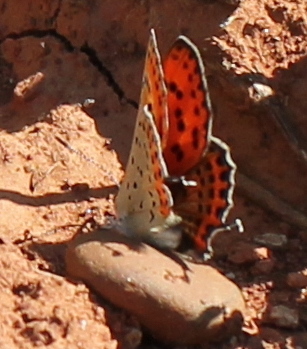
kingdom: Animalia
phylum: Arthropoda
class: Insecta
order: Lepidoptera
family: Lycaenidae
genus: Thersamonia
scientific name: Thersamonia thersamon
